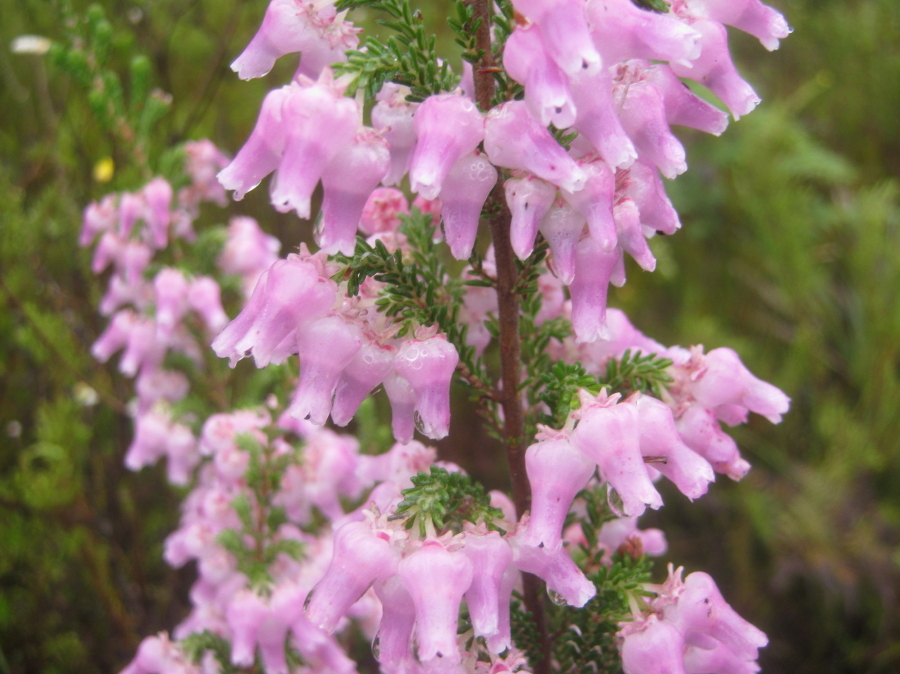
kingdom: Plantae
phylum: Tracheophyta
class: Magnoliopsida
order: Ericales
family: Ericaceae
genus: Erica
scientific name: Erica glomiflora
